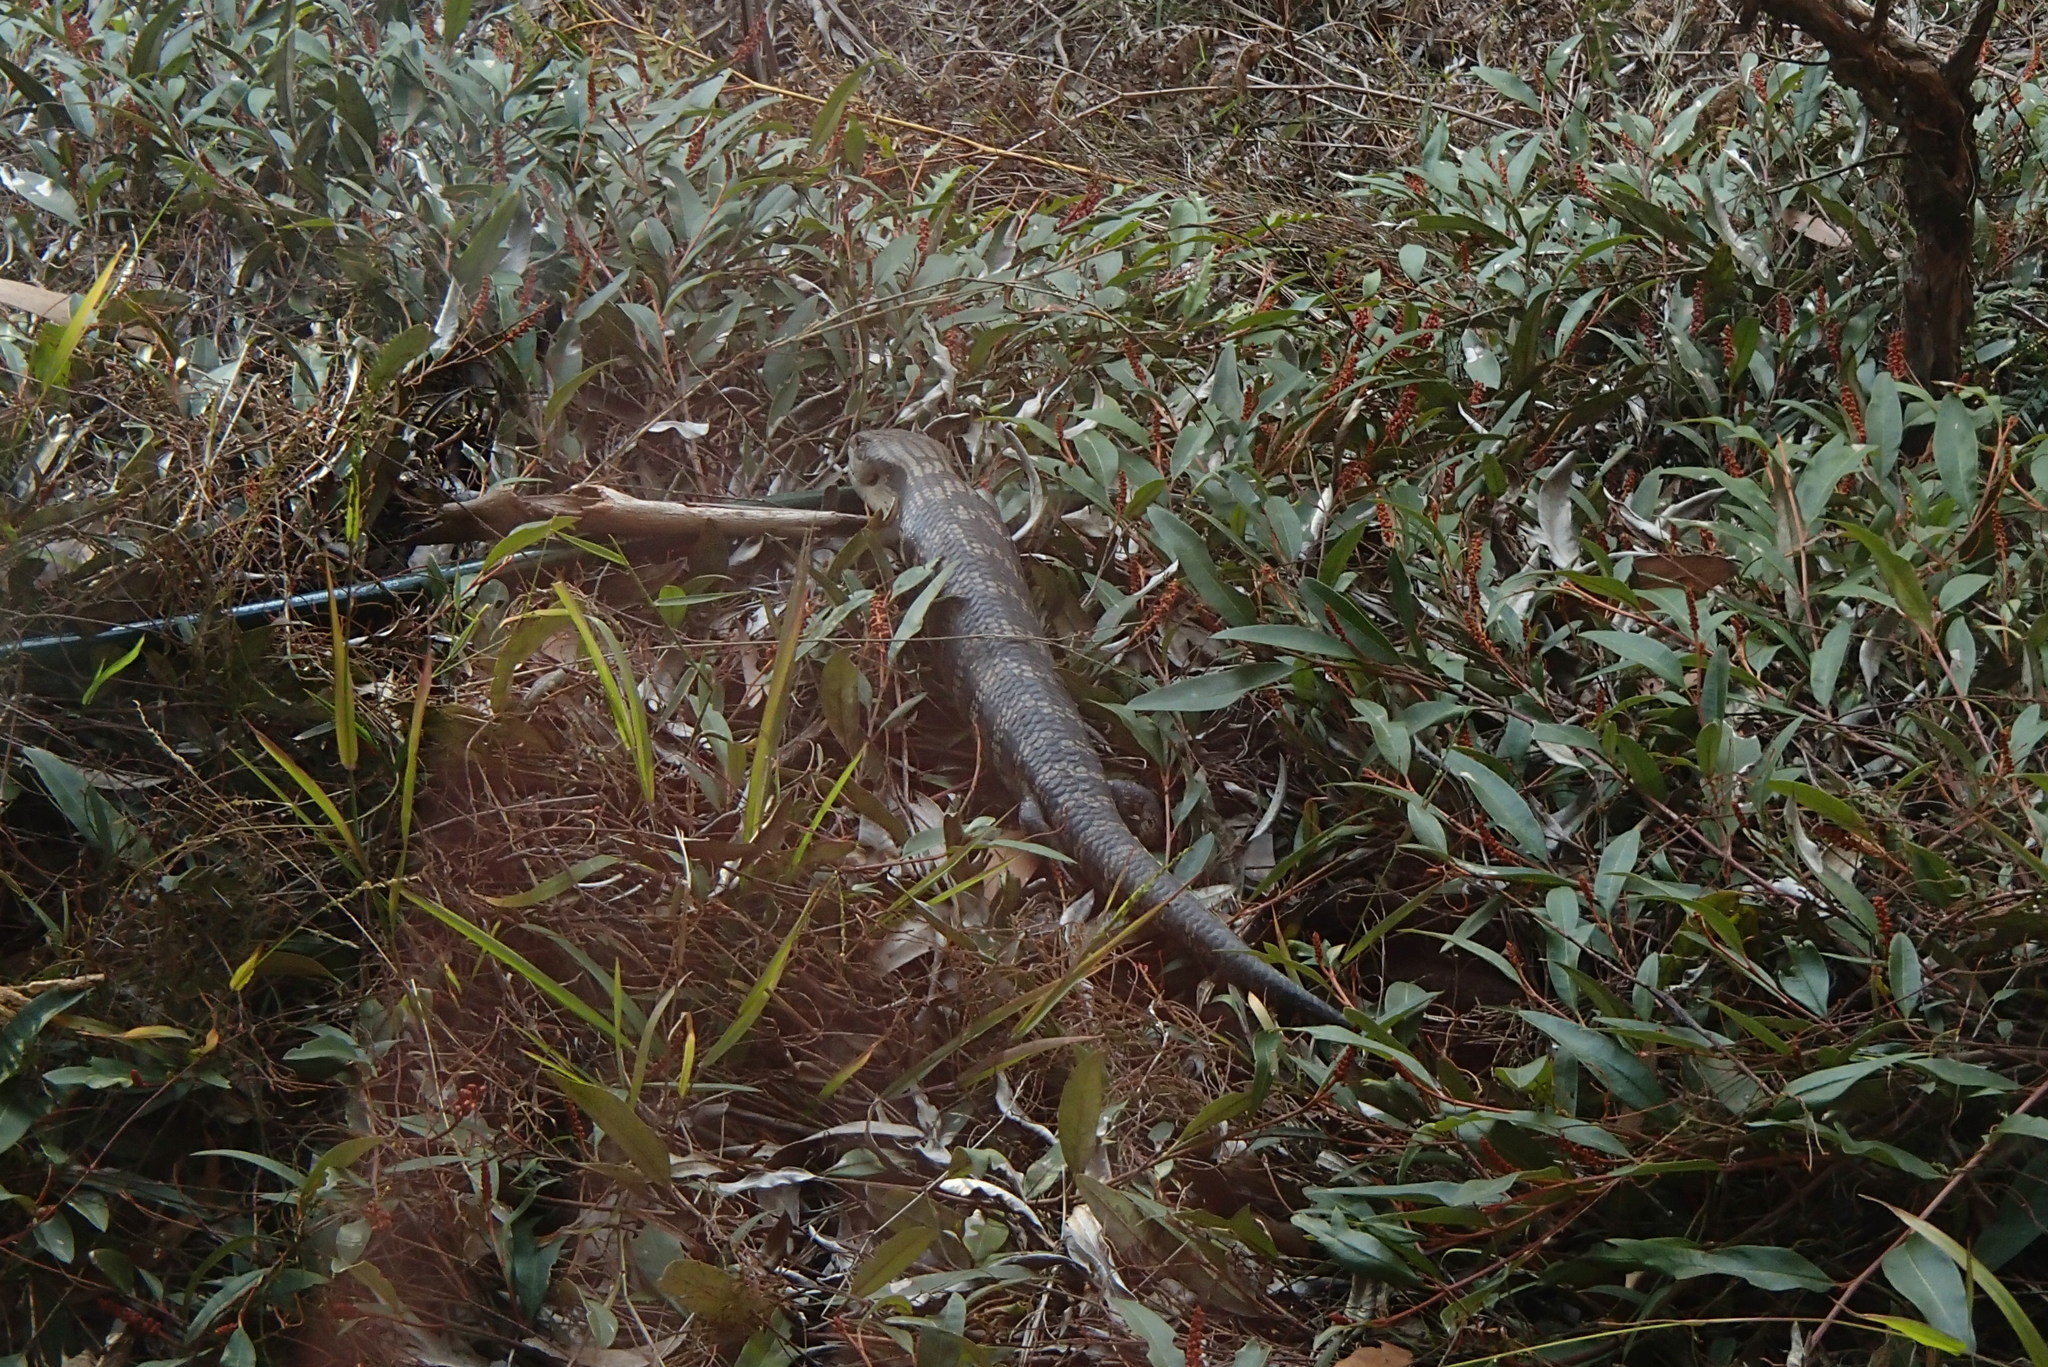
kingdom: Animalia
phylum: Chordata
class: Squamata
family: Scincidae
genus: Tiliqua
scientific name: Tiliqua scincoides
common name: Common bluetongue
